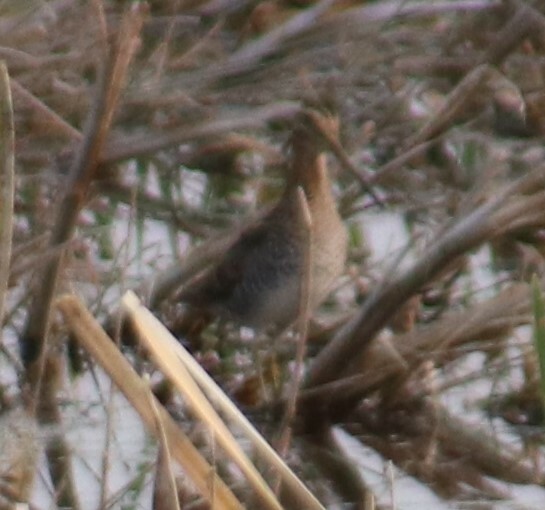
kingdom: Animalia
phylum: Chordata
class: Aves
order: Charadriiformes
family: Scolopacidae
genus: Gallinago
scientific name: Gallinago delicata
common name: Wilson's snipe
